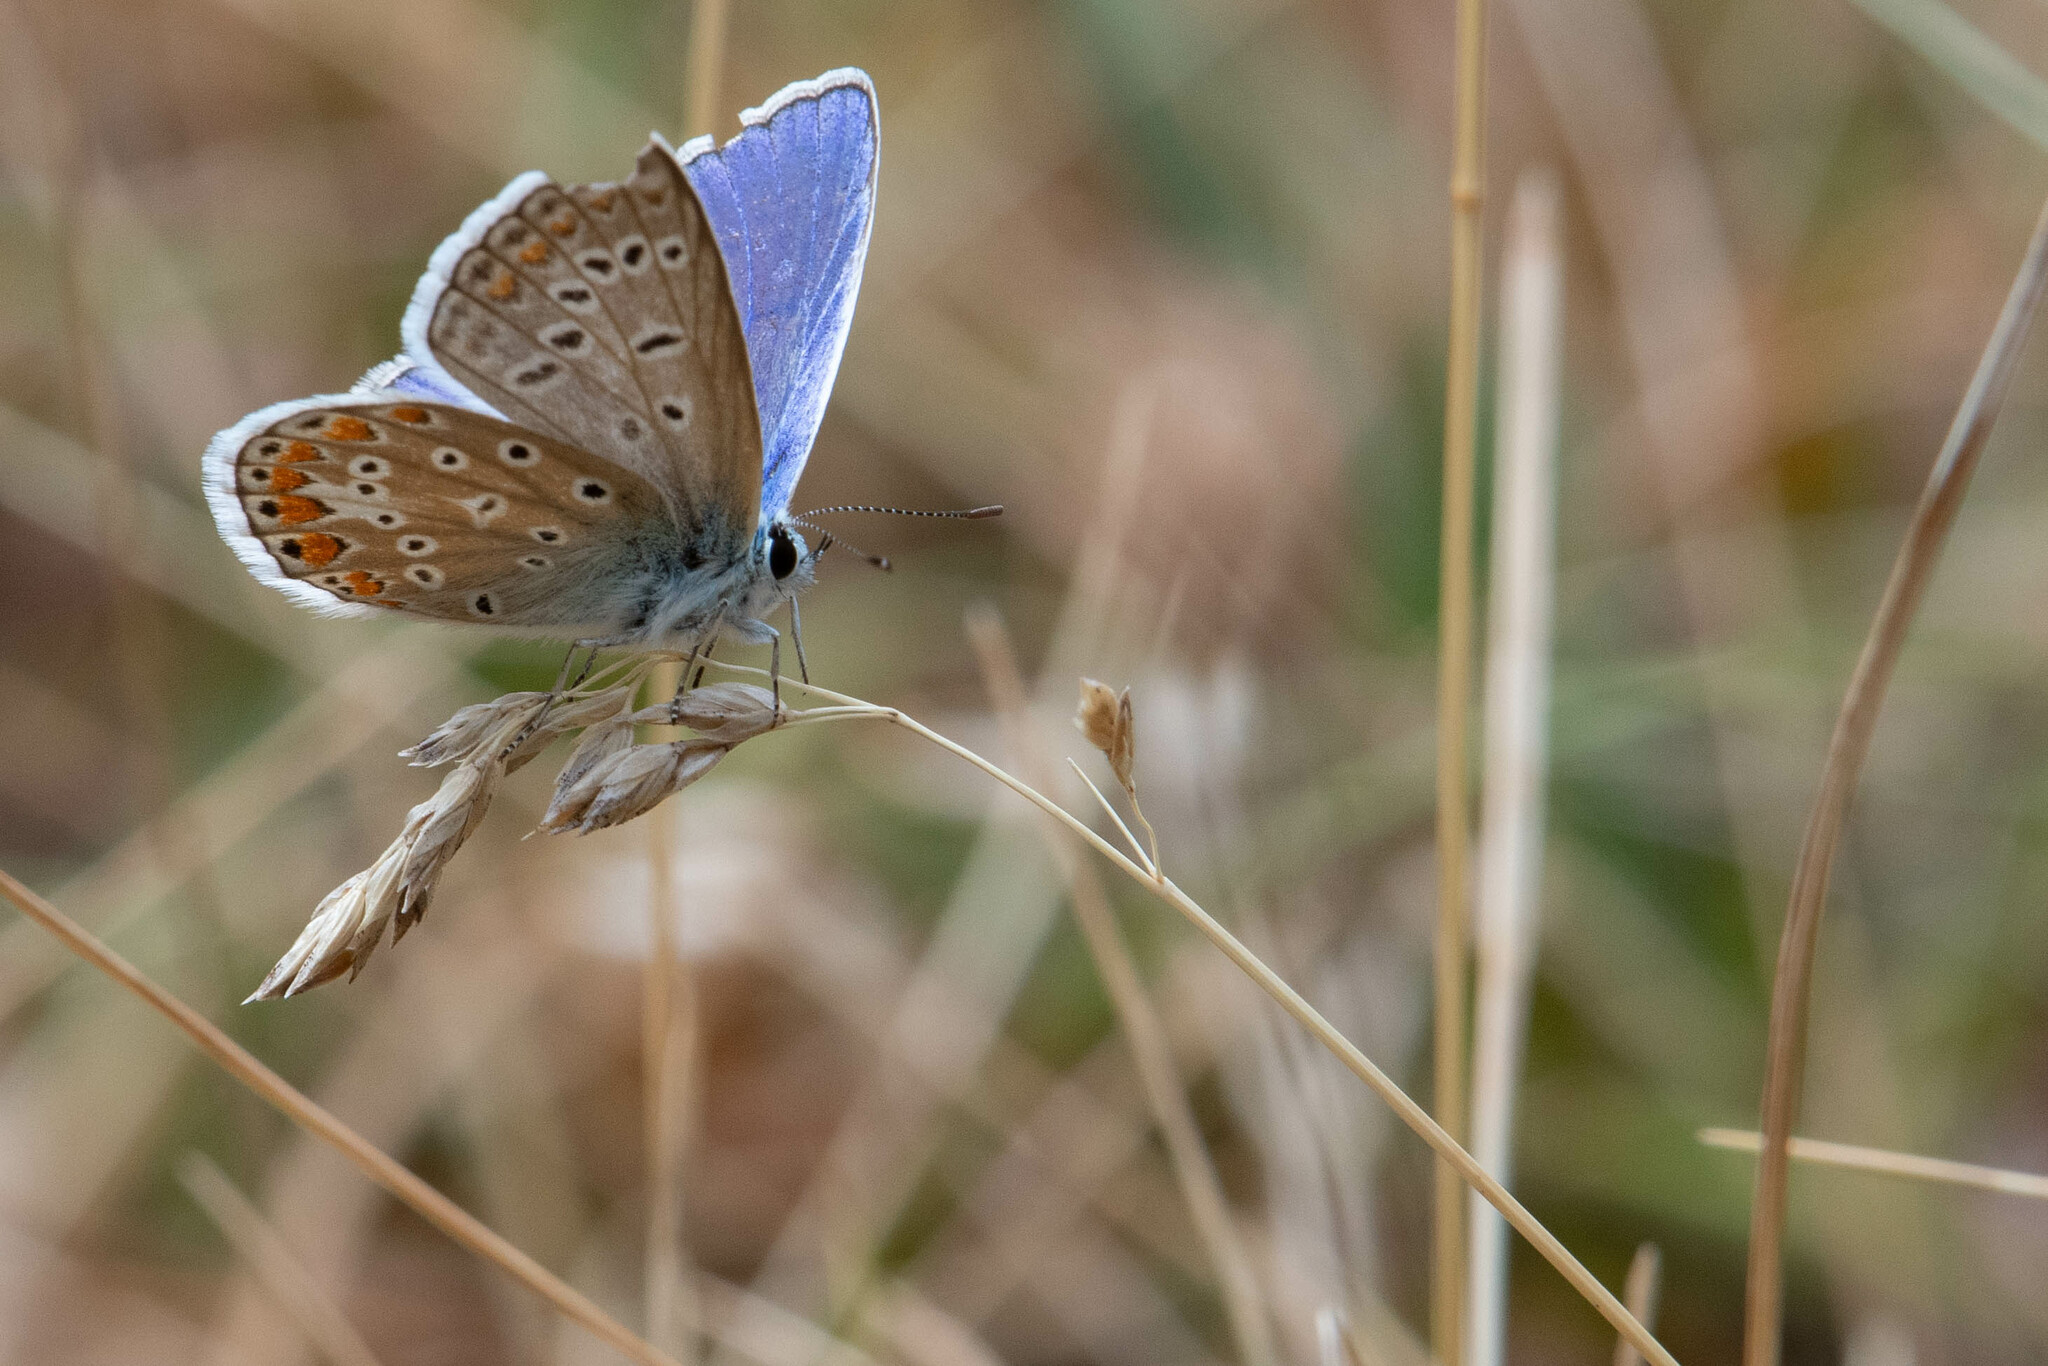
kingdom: Animalia
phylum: Arthropoda
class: Insecta
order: Lepidoptera
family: Lycaenidae
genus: Polyommatus
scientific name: Polyommatus icarus
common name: Common blue
